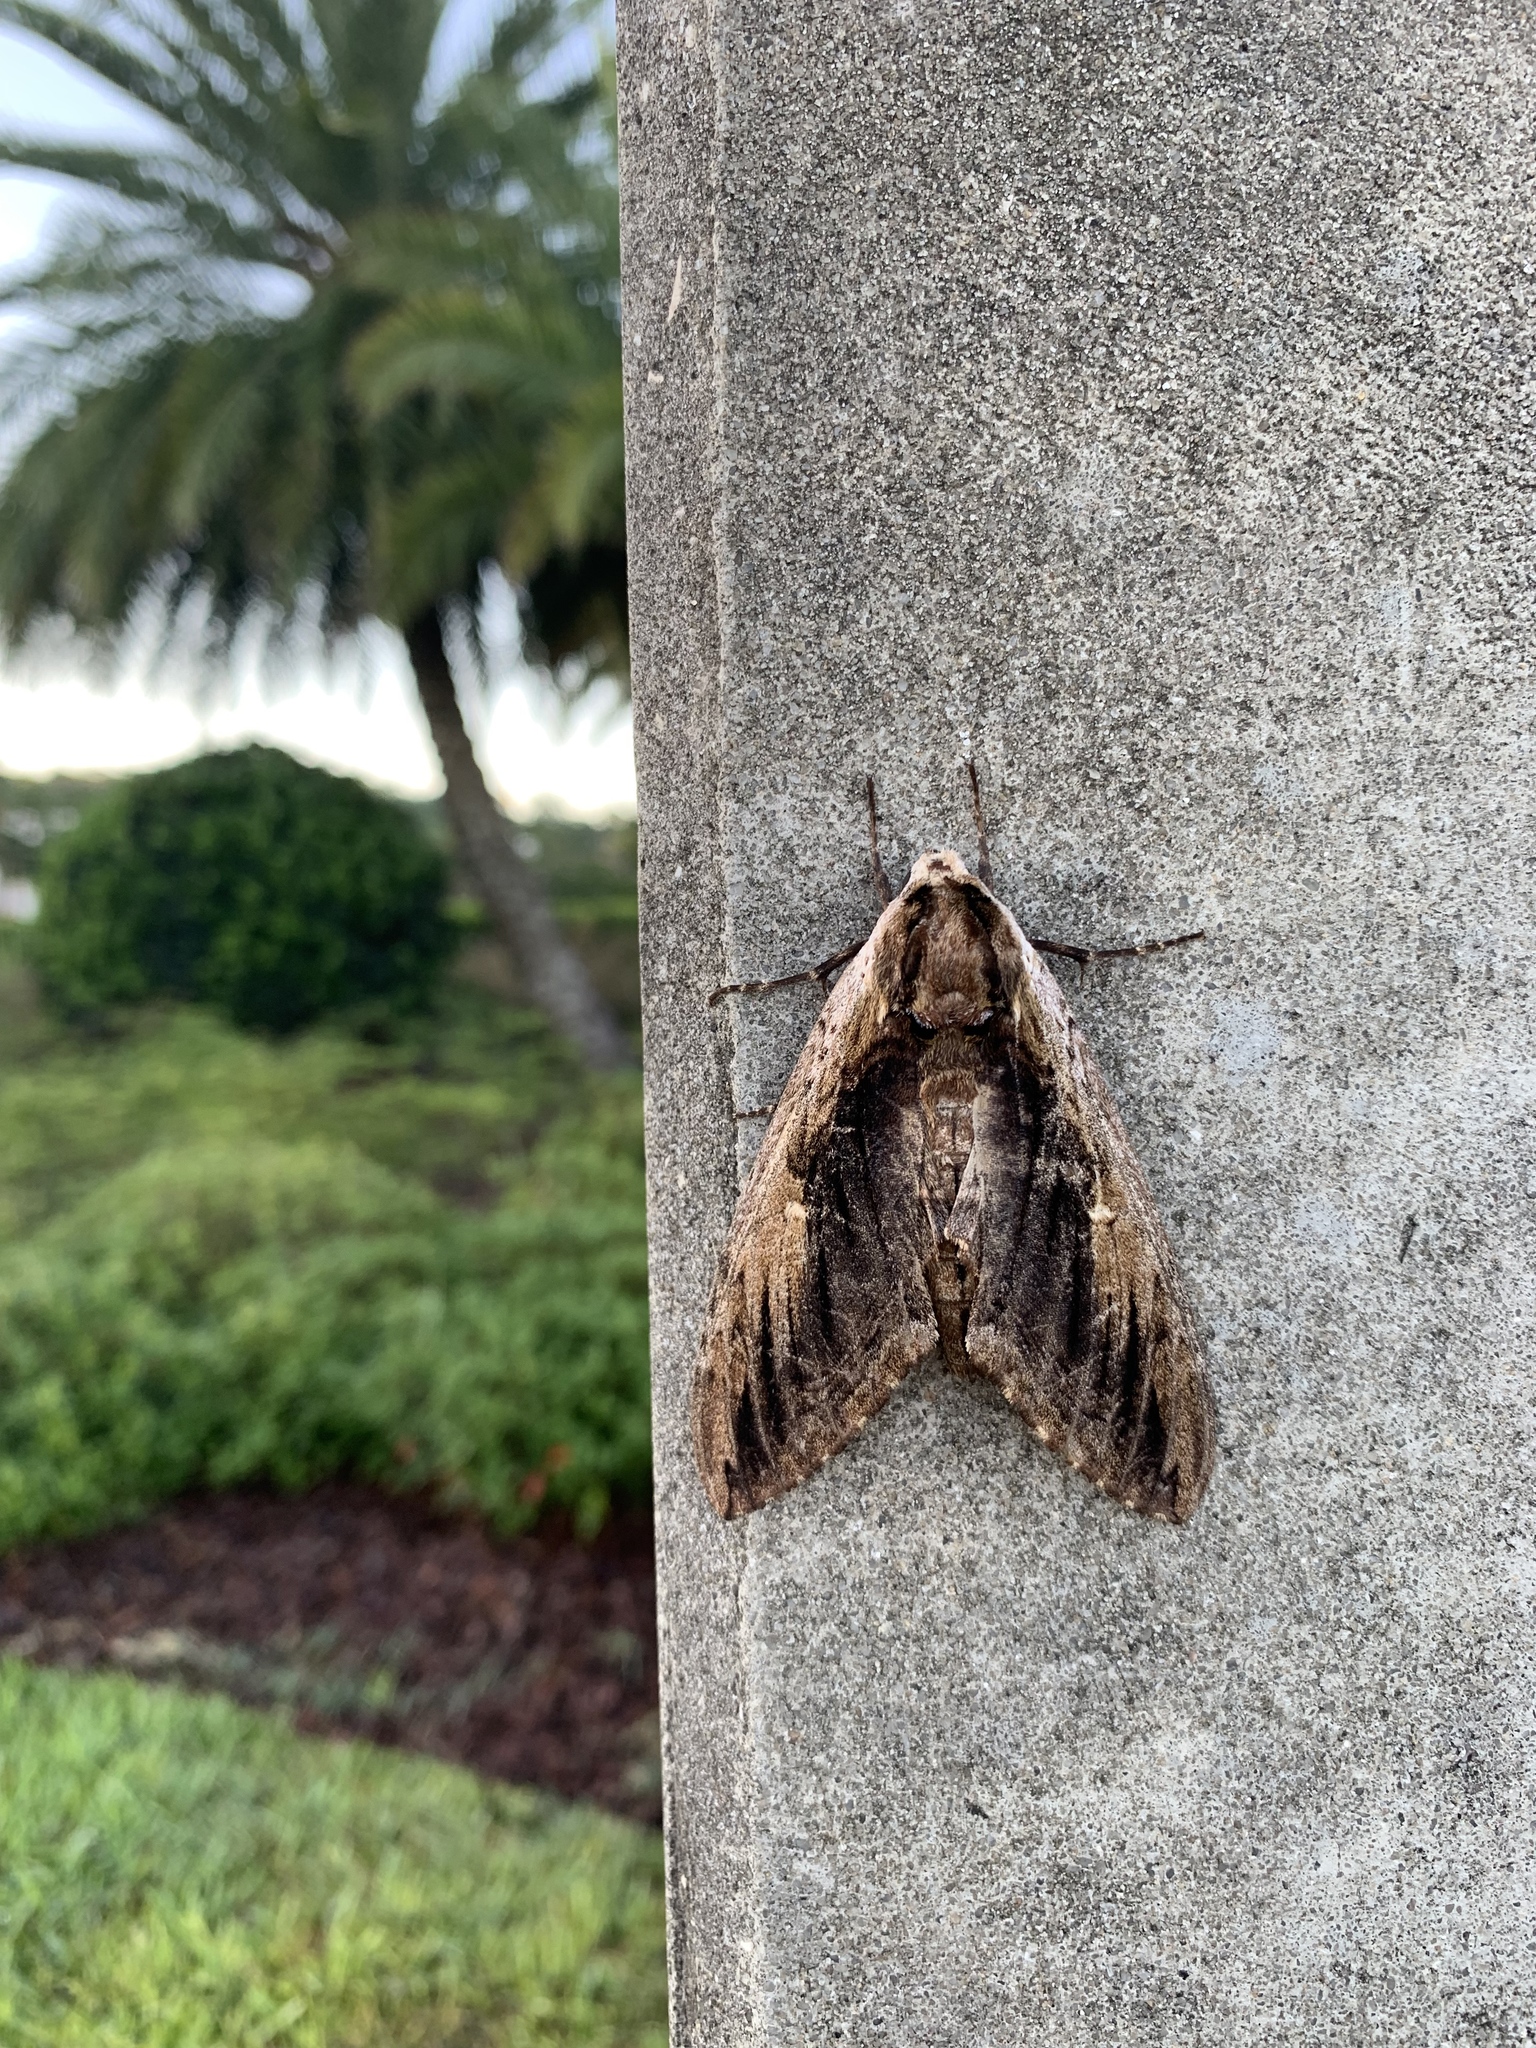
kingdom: Animalia
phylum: Arthropoda
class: Insecta
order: Lepidoptera
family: Sphingidae
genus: Ceratomia
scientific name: Ceratomia amyntor
